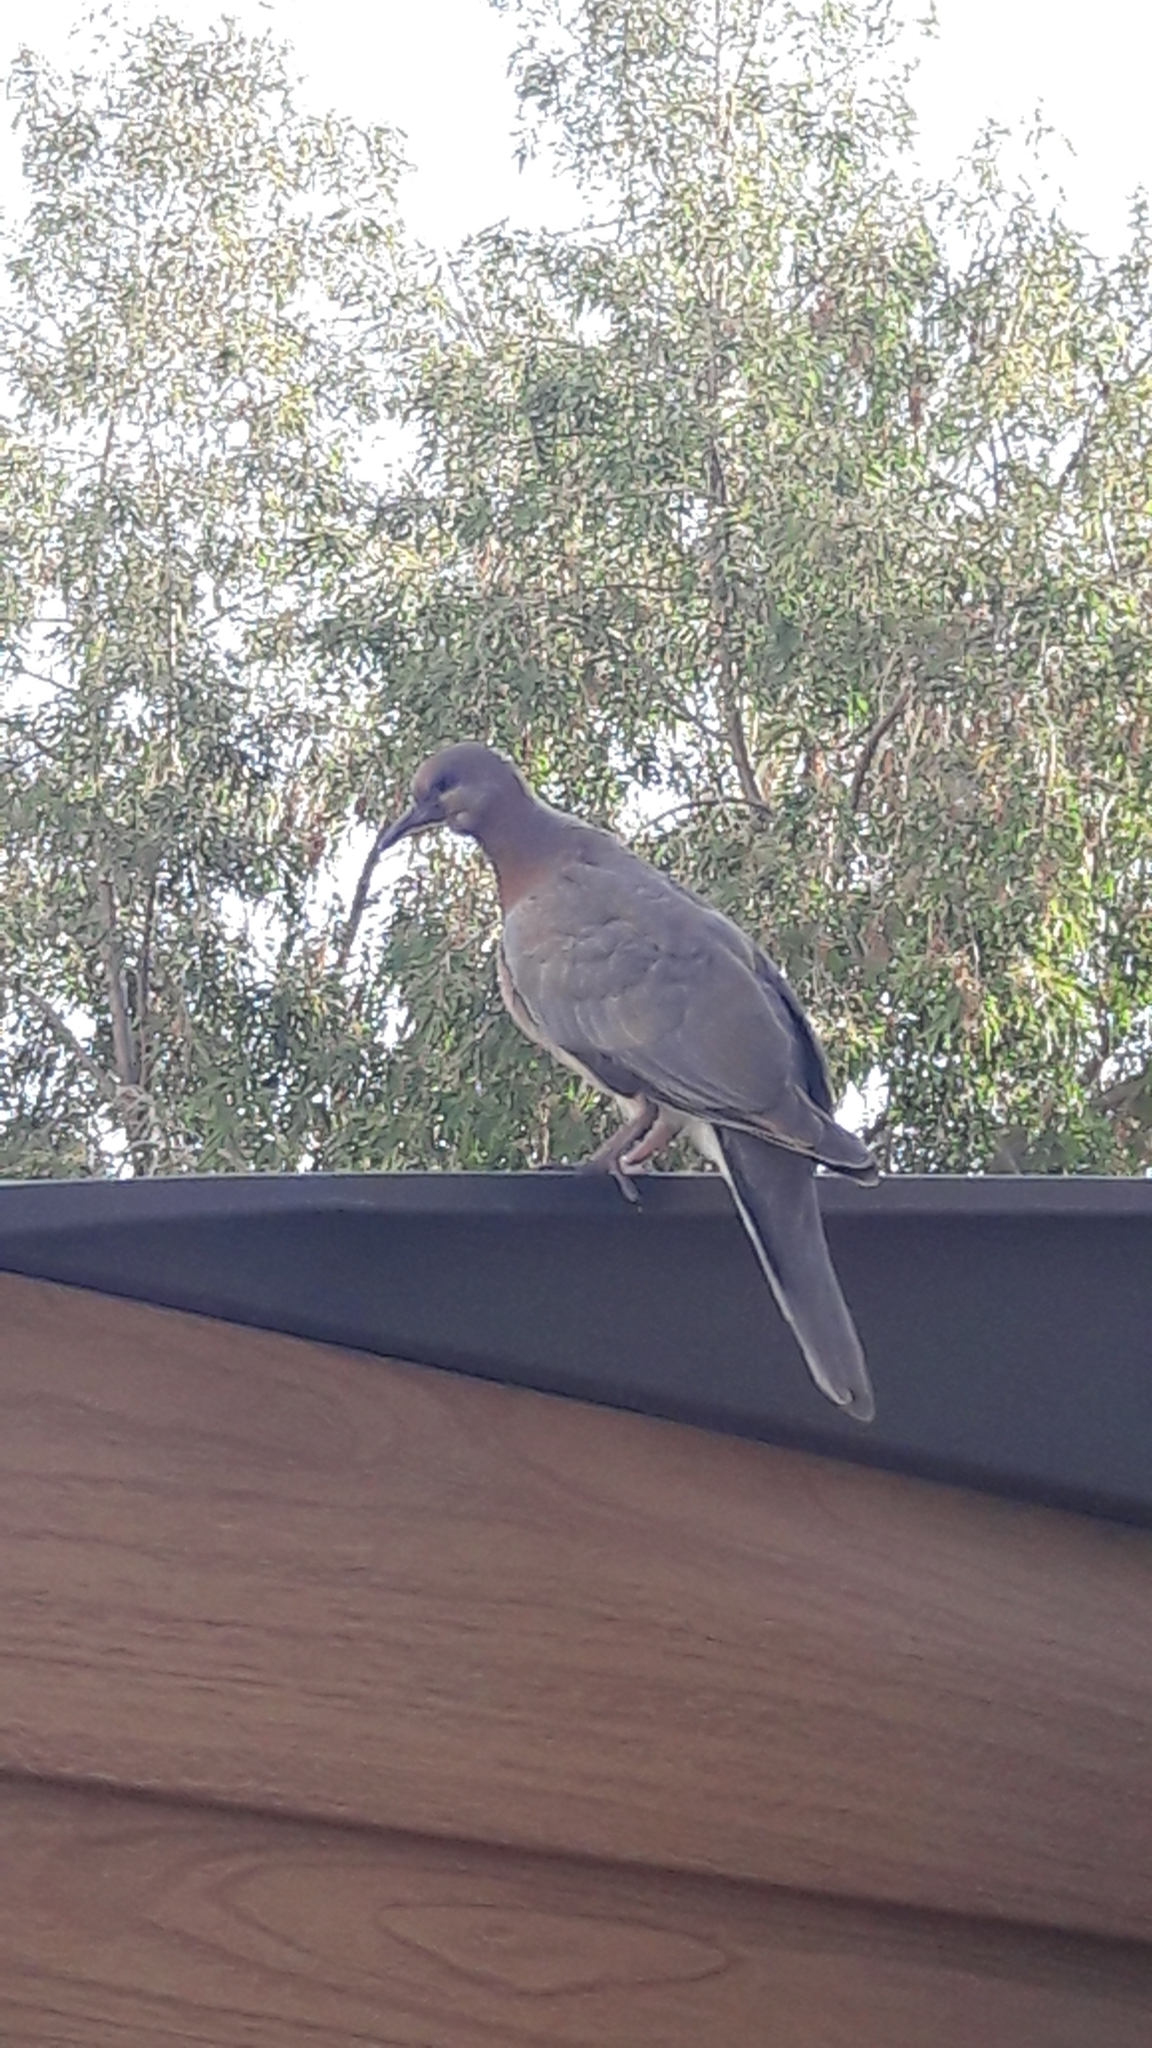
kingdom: Animalia
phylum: Chordata
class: Aves
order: Columbiformes
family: Columbidae
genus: Spilopelia
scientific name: Spilopelia senegalensis
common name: Laughing dove
